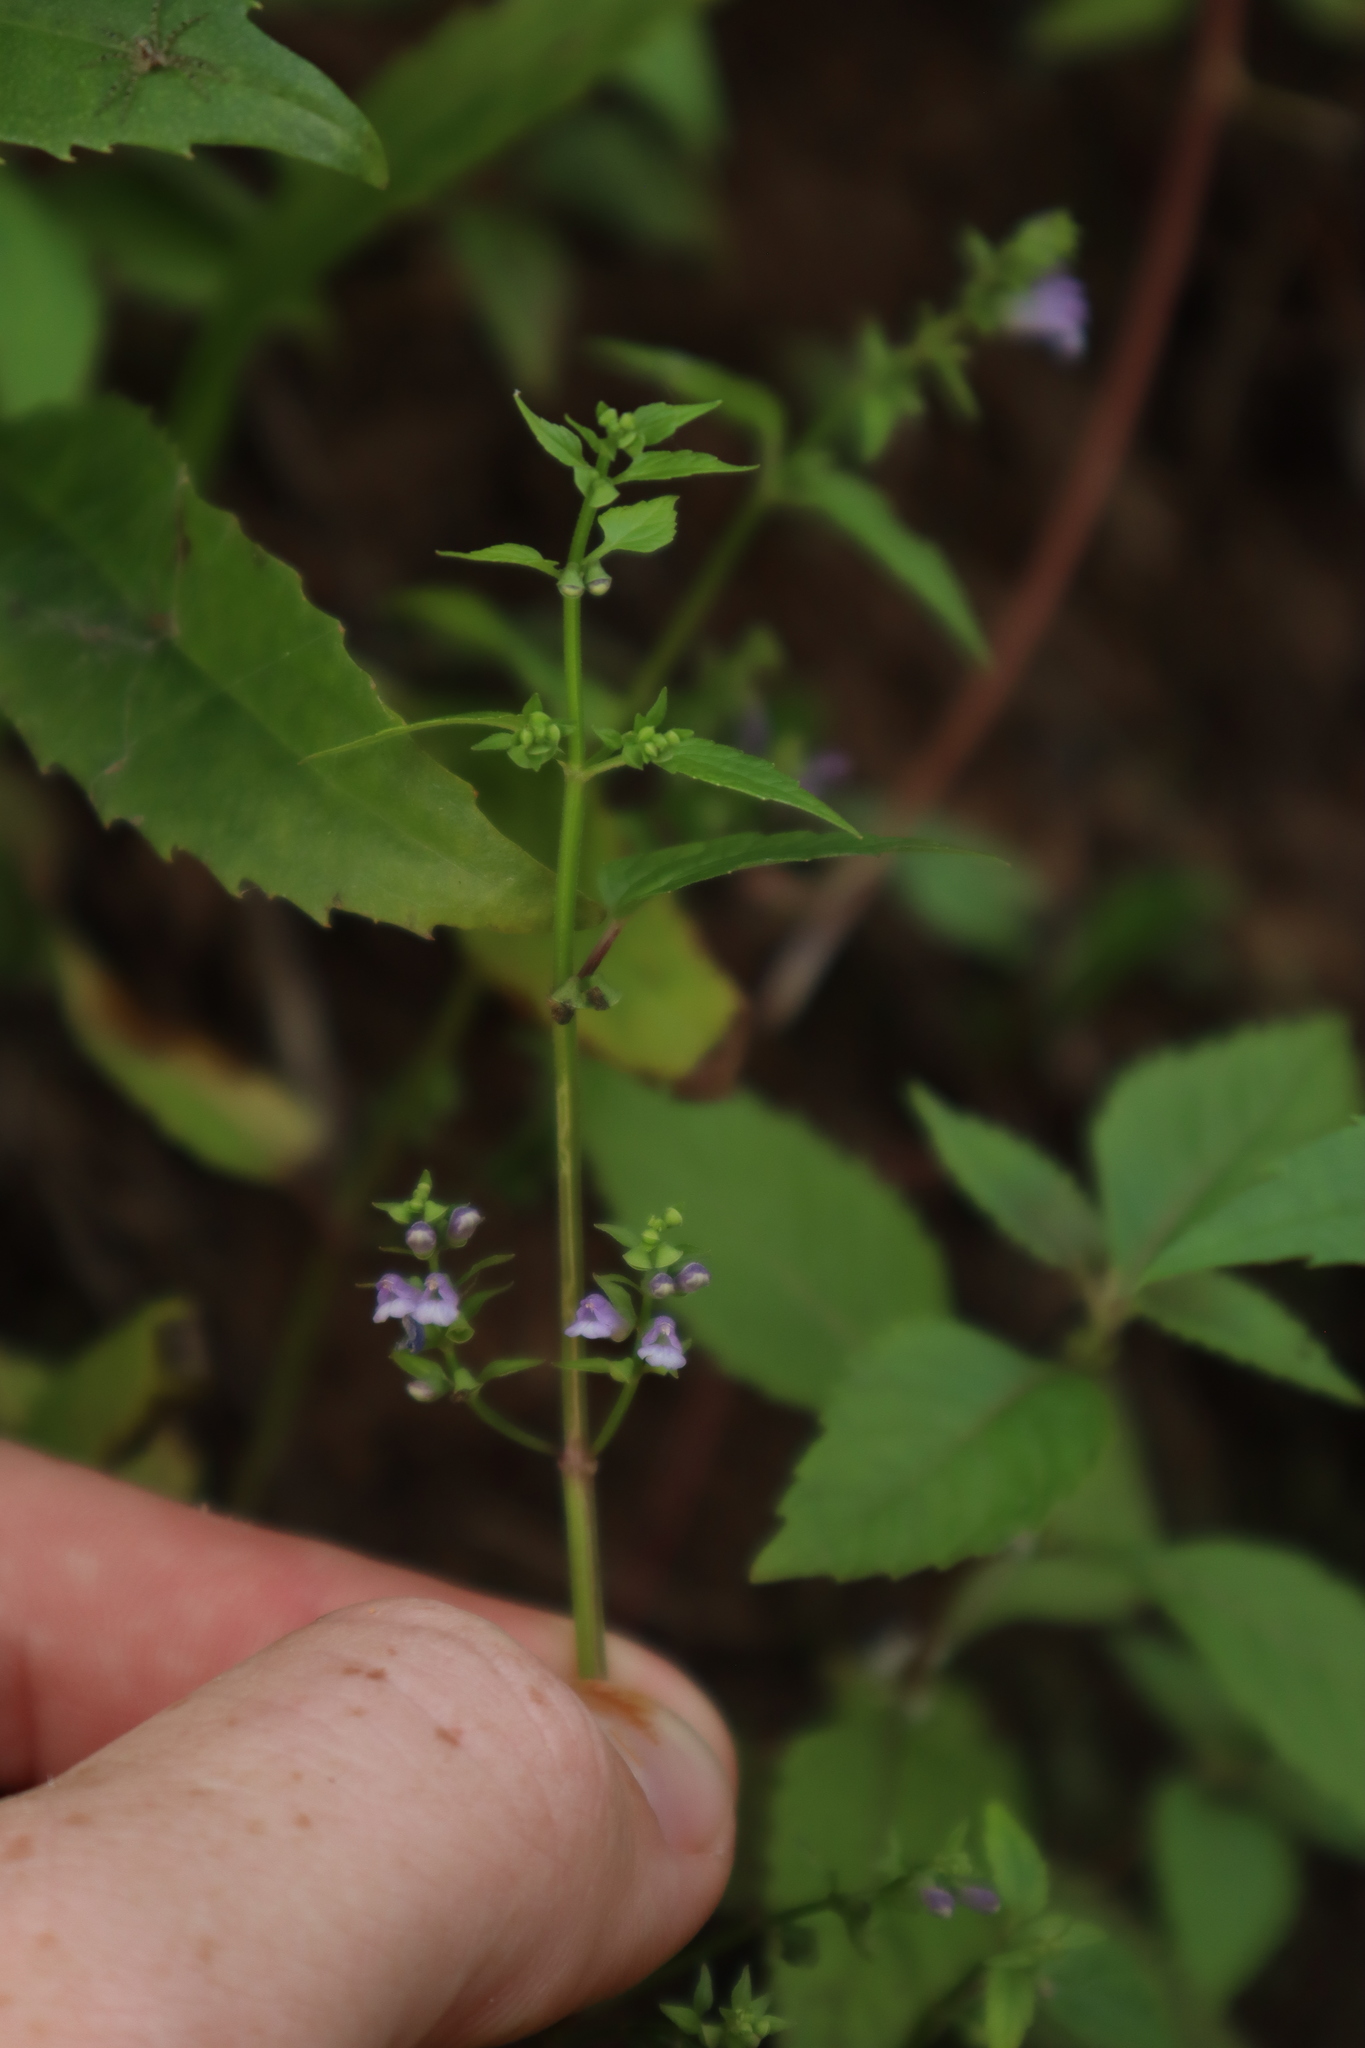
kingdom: Plantae
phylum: Tracheophyta
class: Magnoliopsida
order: Lamiales
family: Lamiaceae
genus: Scutellaria
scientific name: Scutellaria lateriflora
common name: Blue skullcap
